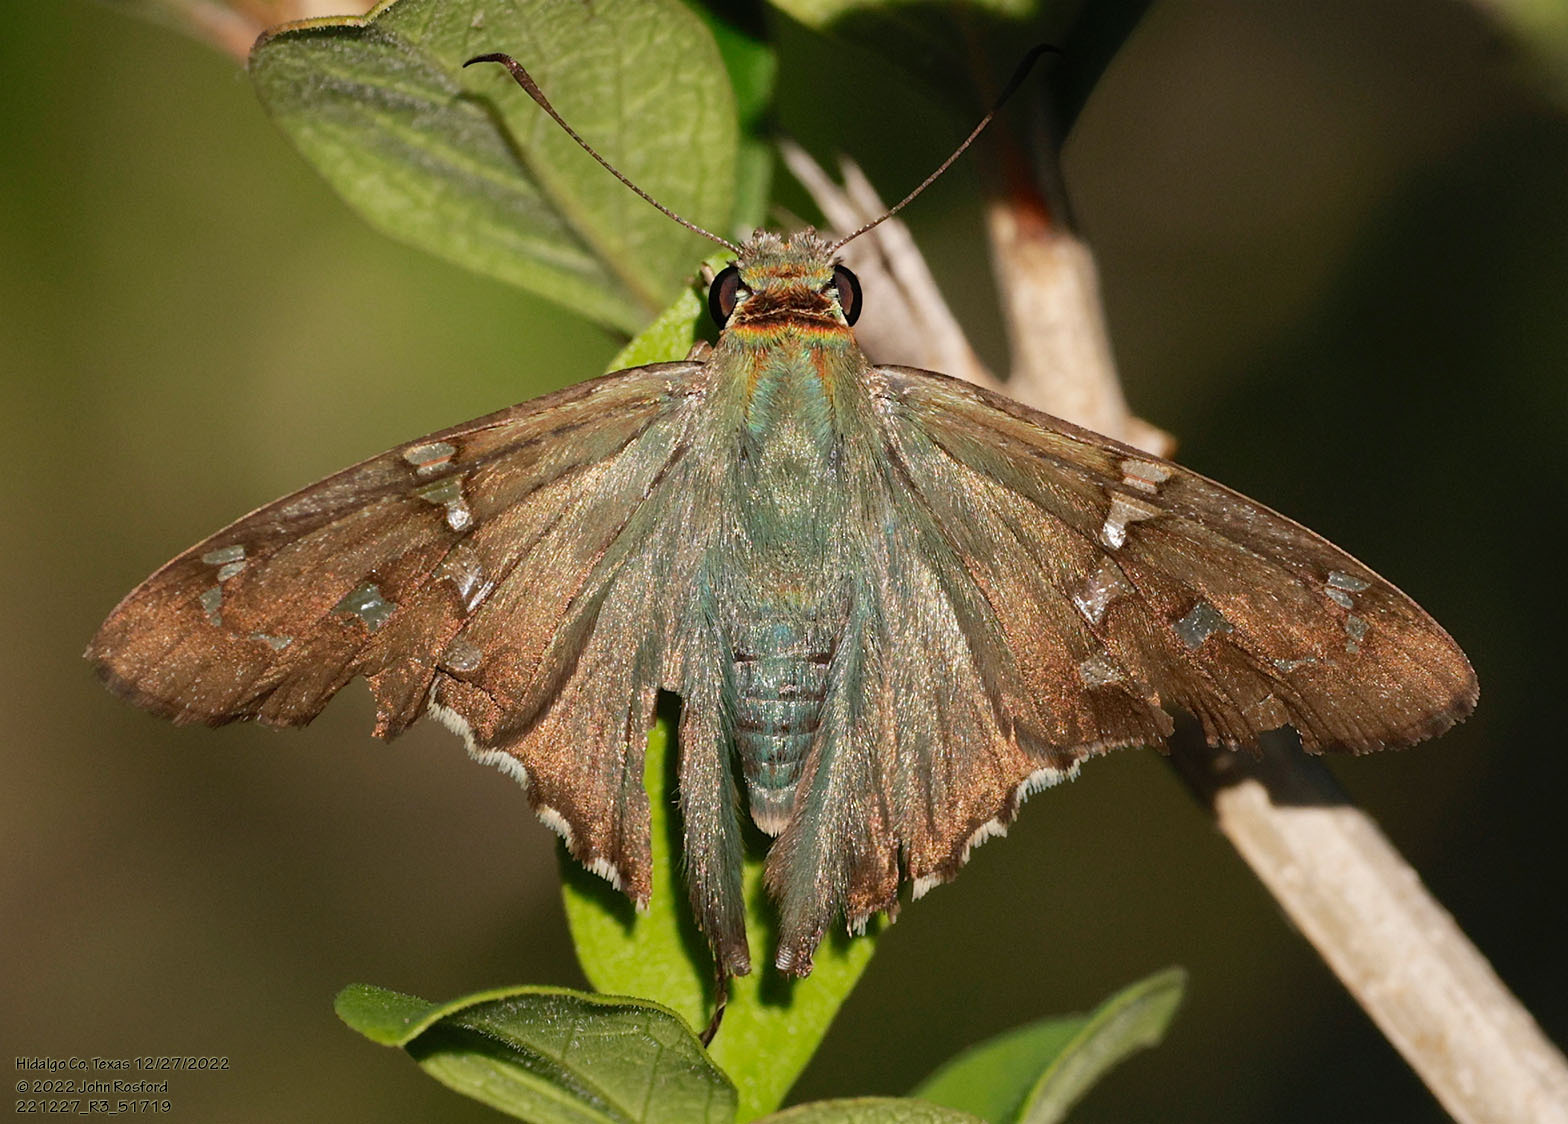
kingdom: Animalia
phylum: Arthropoda
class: Insecta
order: Lepidoptera
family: Hesperiidae
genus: Urbanus
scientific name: Urbanus proteus
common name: Long-tailed skipper
